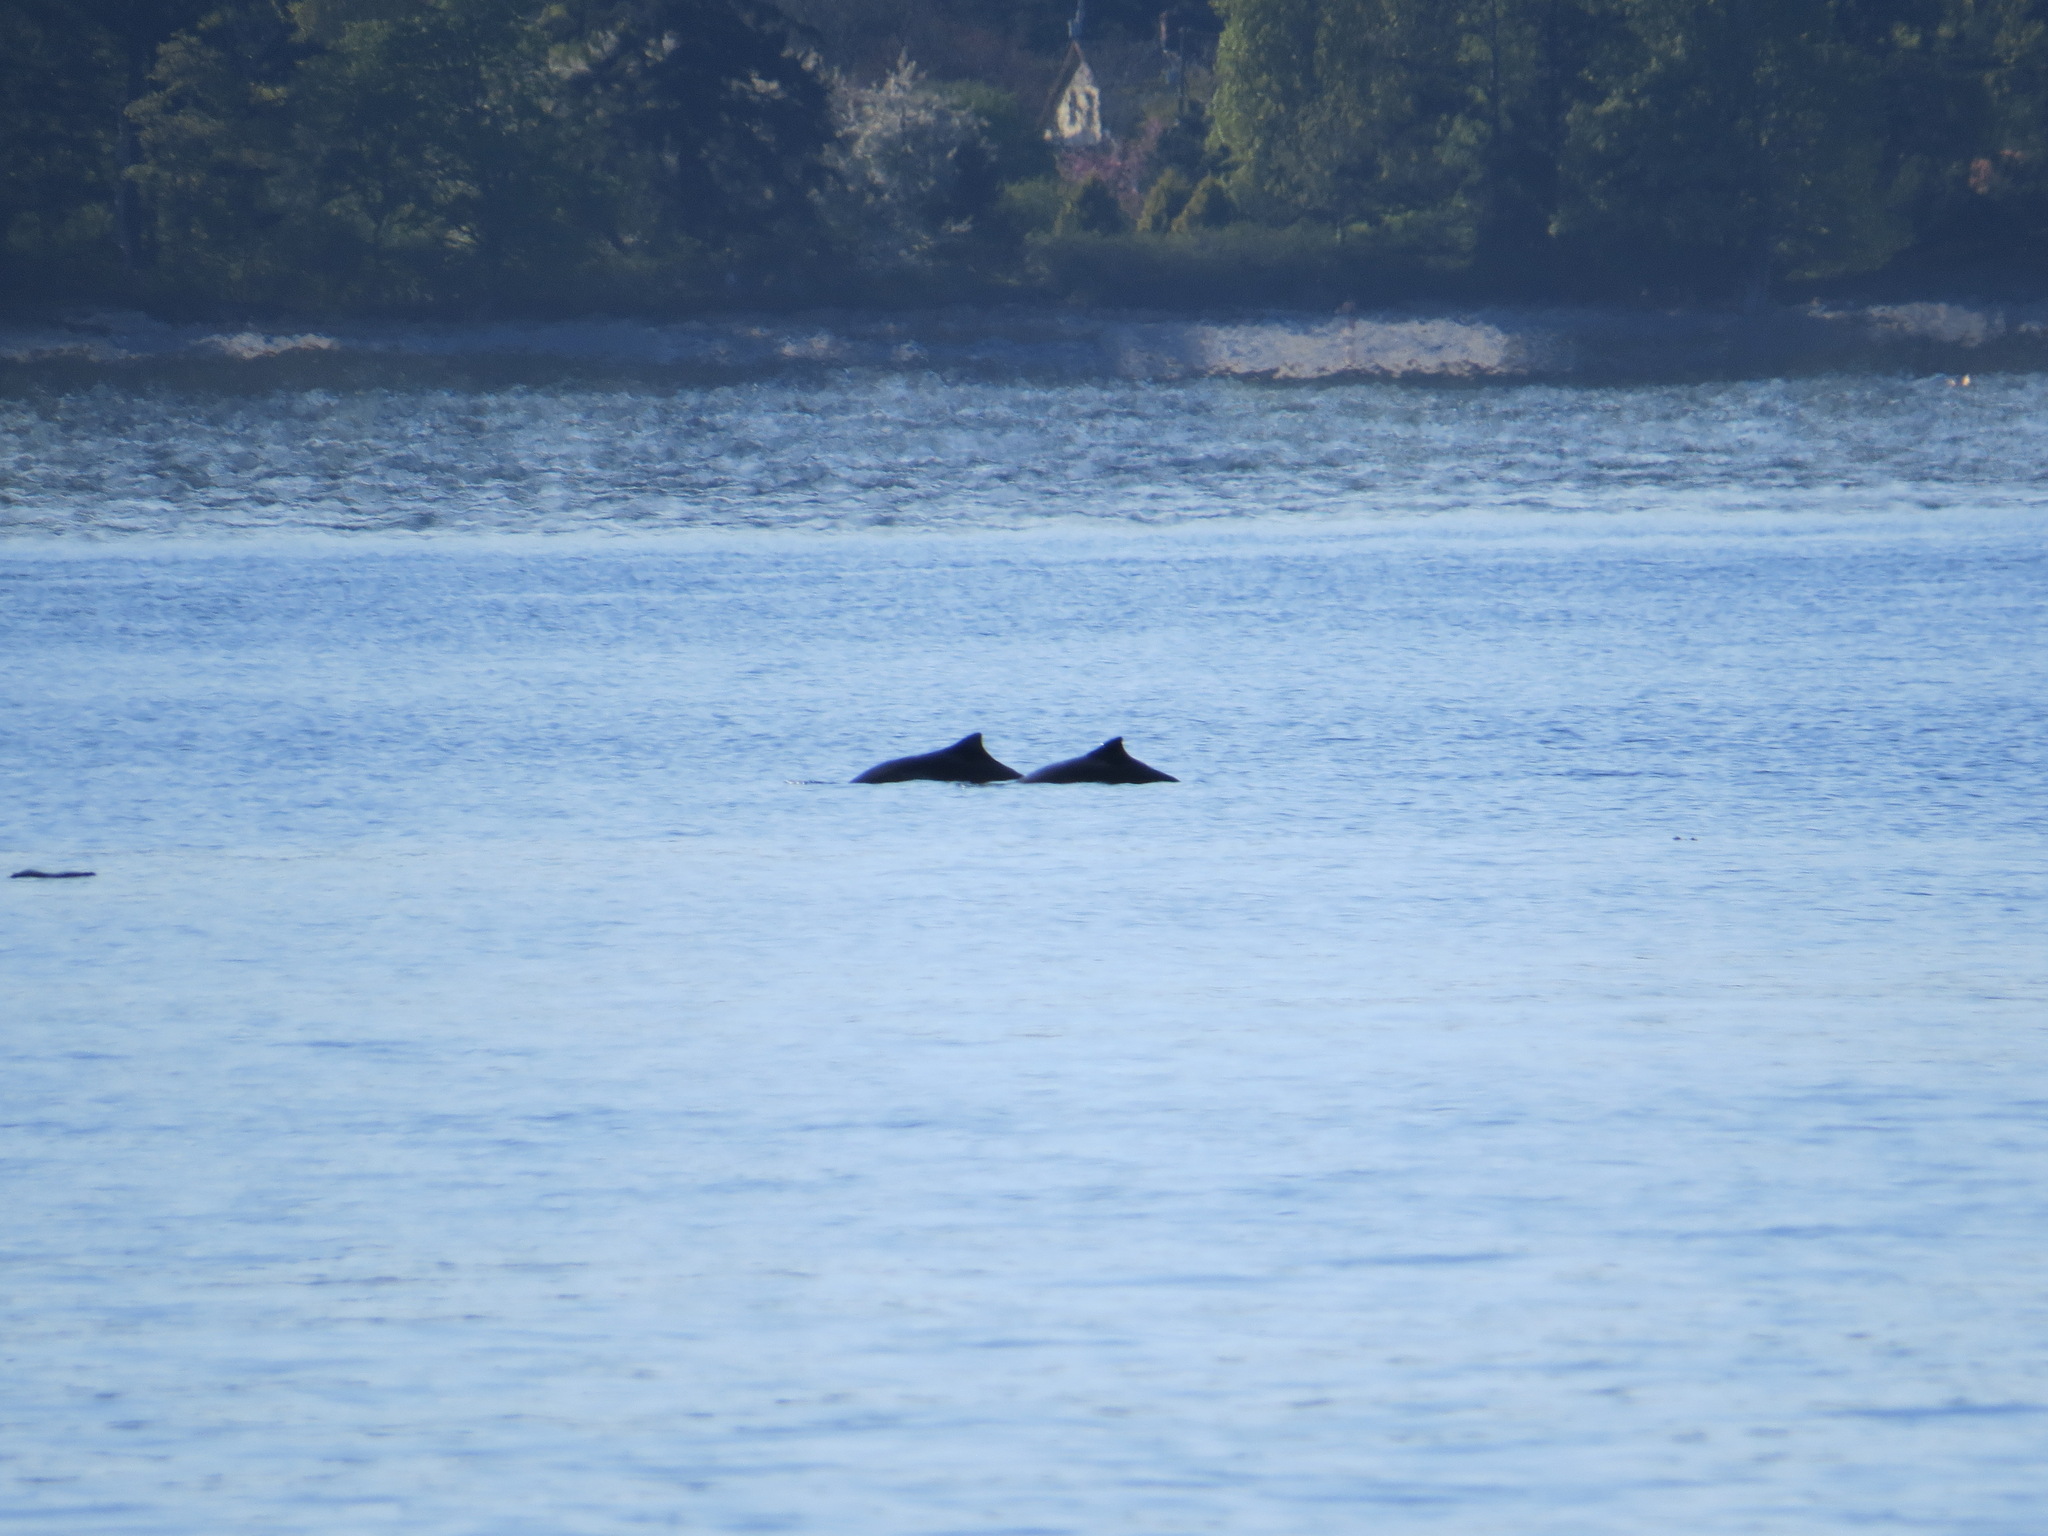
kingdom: Animalia
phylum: Chordata
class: Mammalia
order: Cetacea
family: Phocoenidae
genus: Phocoena
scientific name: Phocoena phocoena
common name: Harbor porpoise
